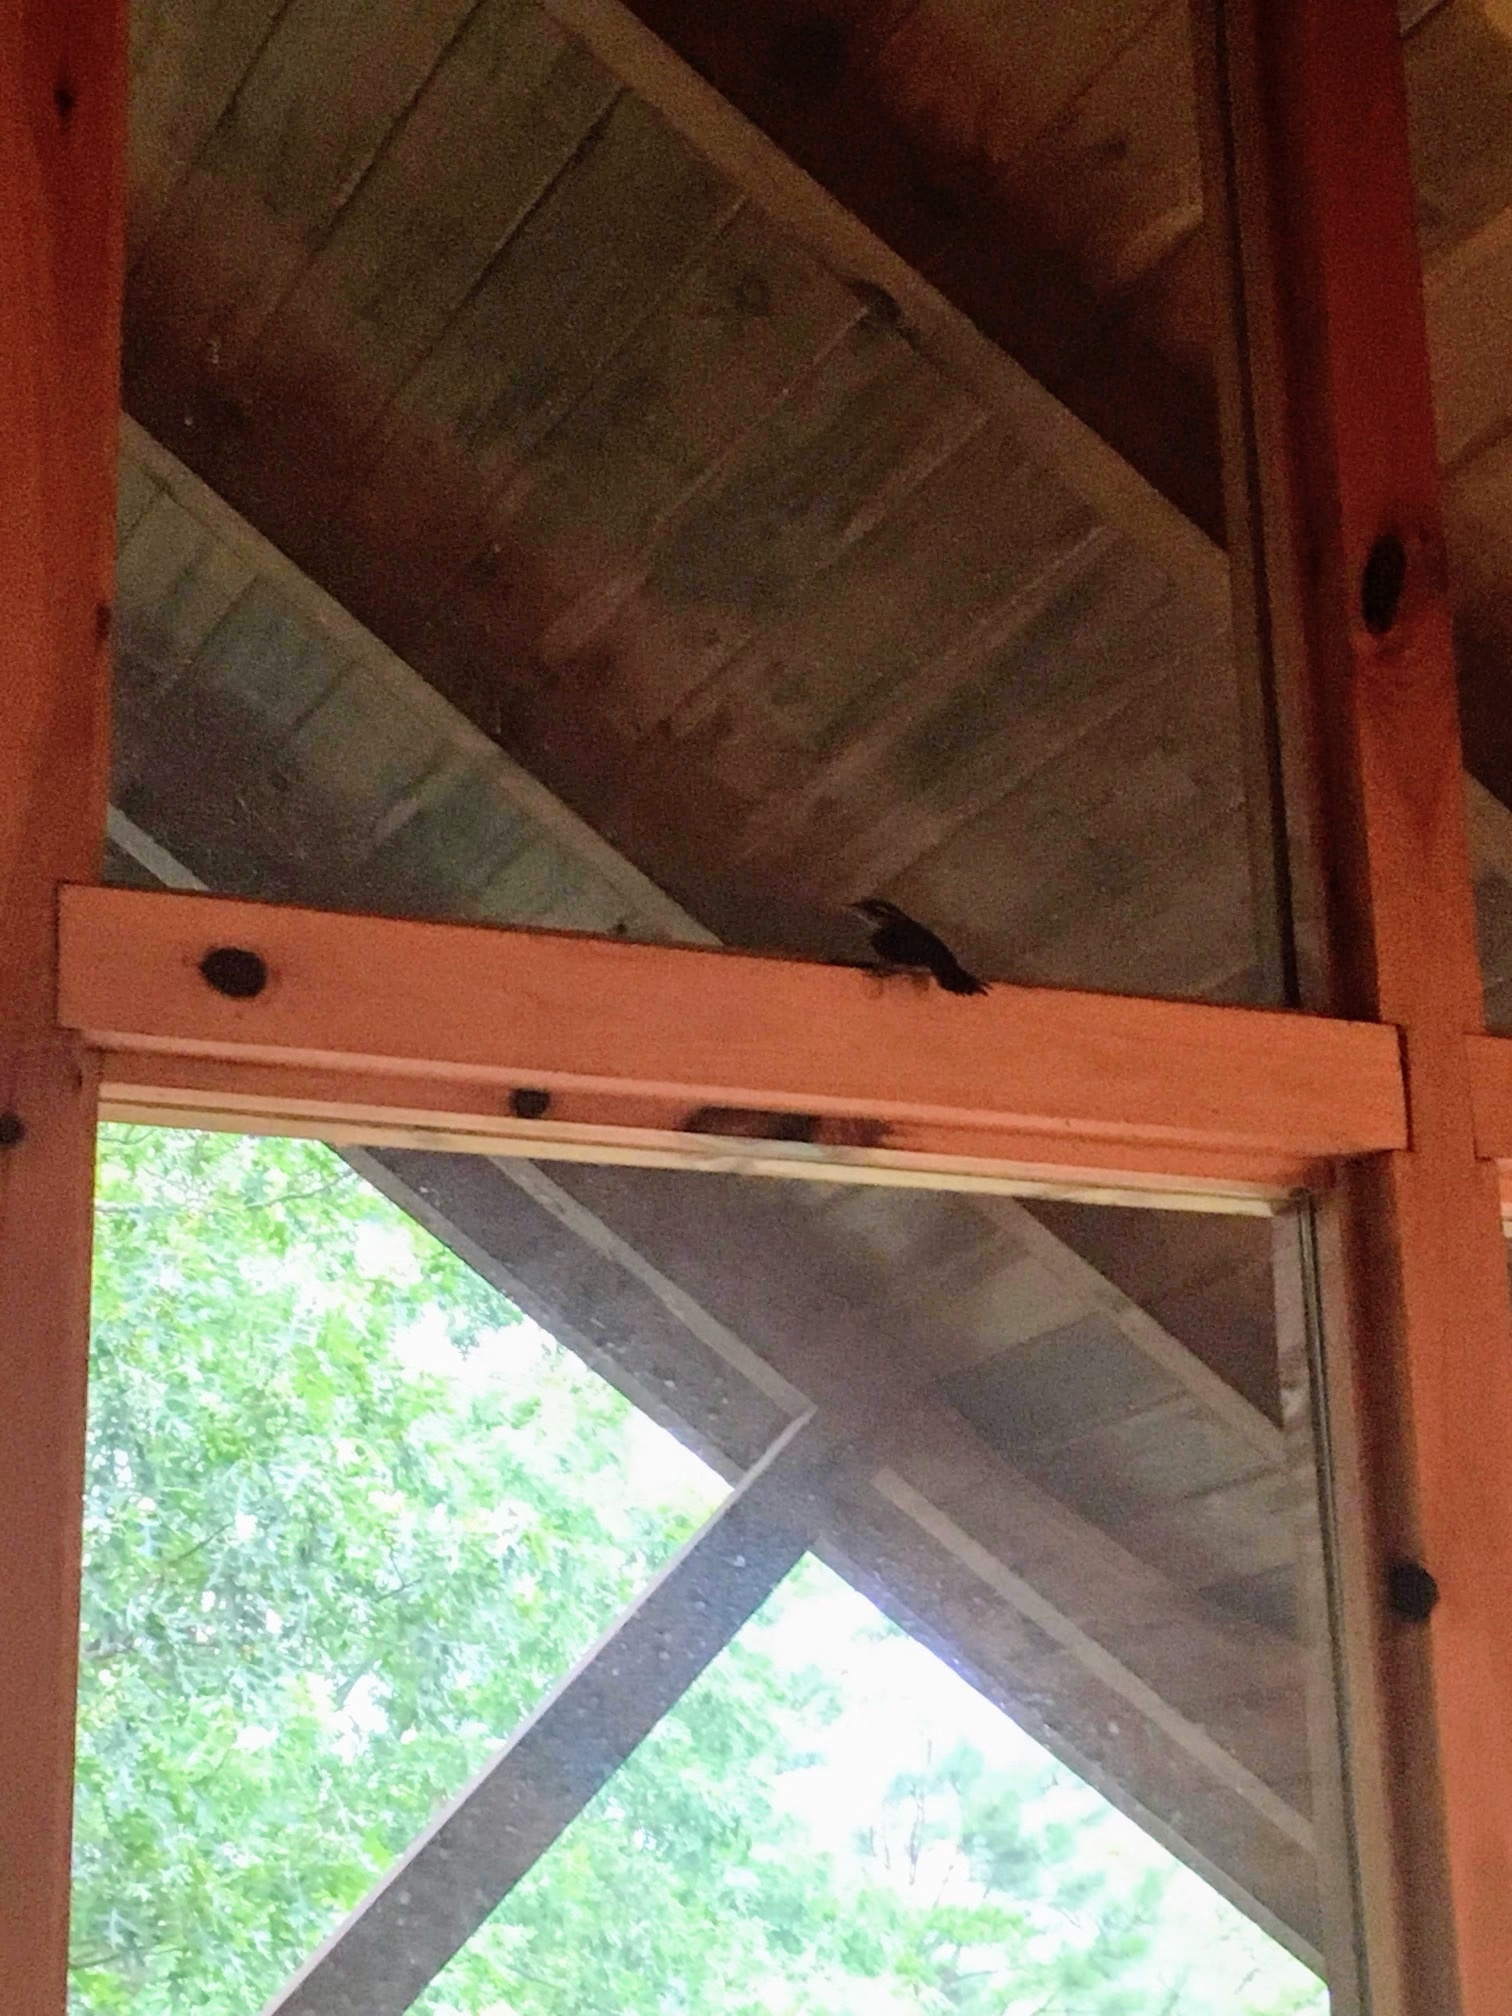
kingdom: Animalia
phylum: Chordata
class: Aves
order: Passeriformes
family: Troglodytidae
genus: Thryothorus
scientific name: Thryothorus ludovicianus
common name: Carolina wren
